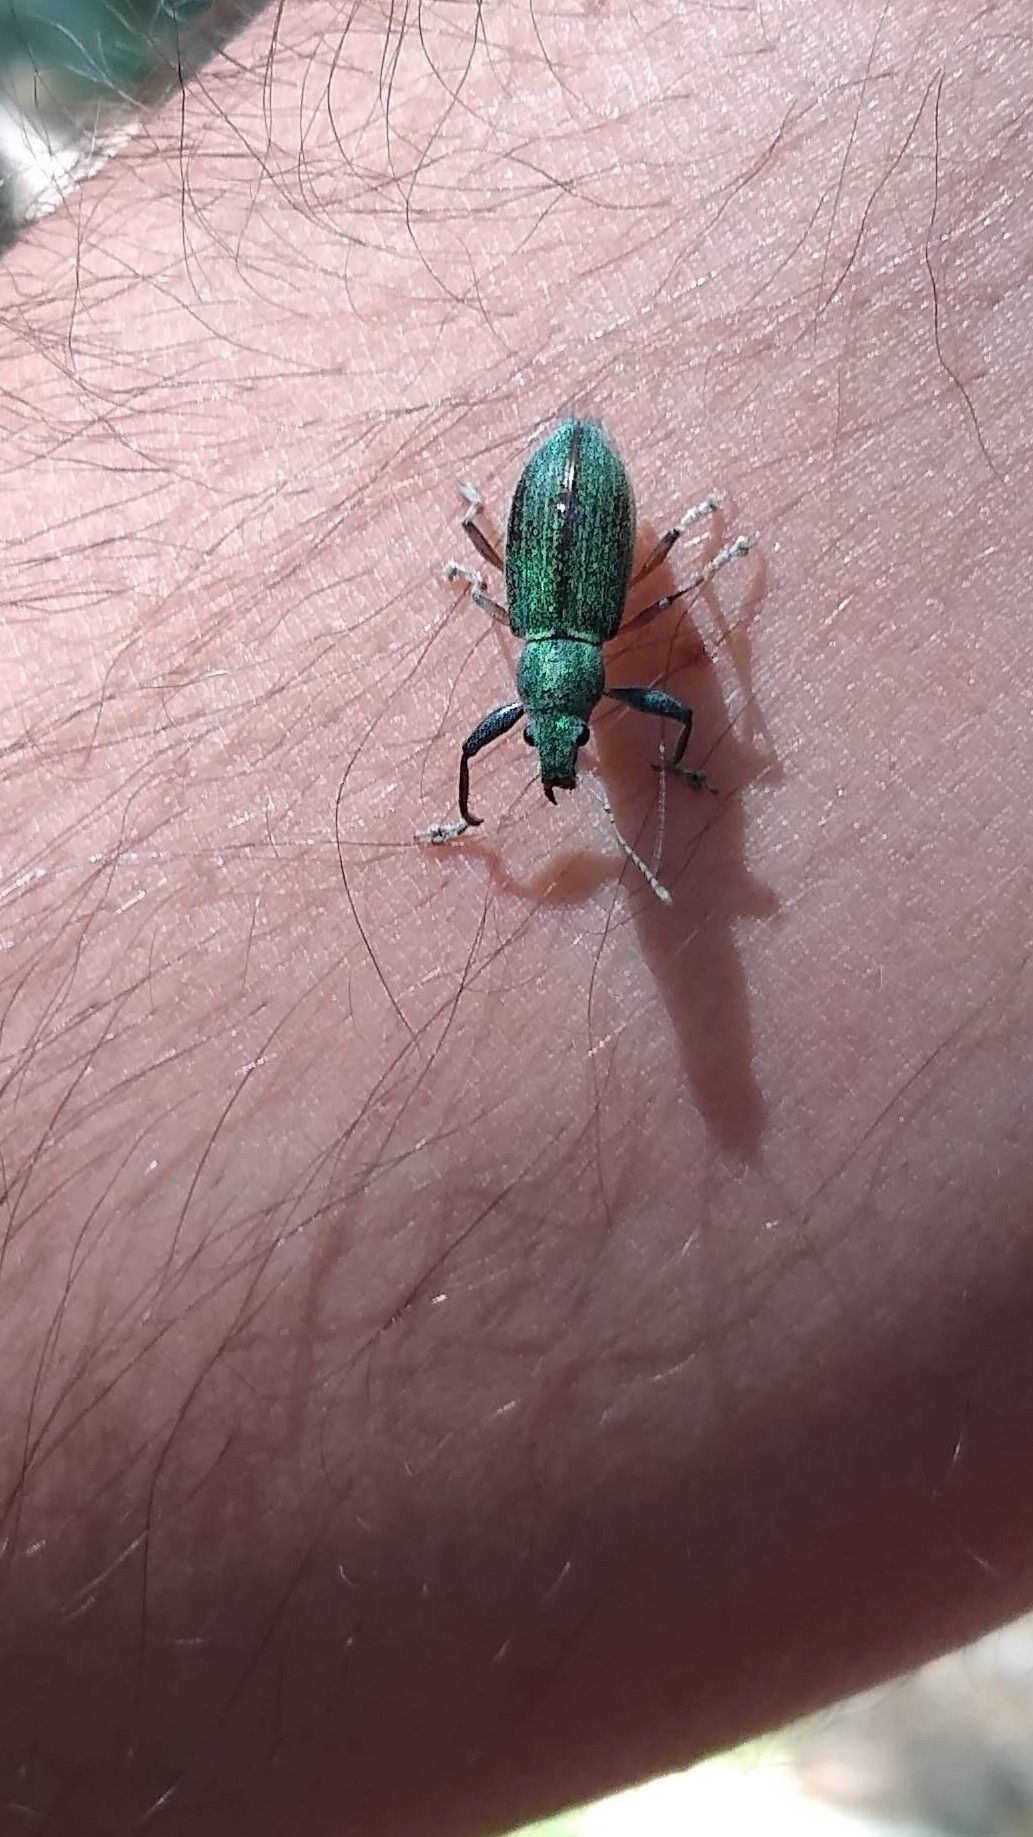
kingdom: Animalia
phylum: Arthropoda
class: Insecta
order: Coleoptera
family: Curculionidae
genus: Naupactus
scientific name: Naupactus auricinctus
